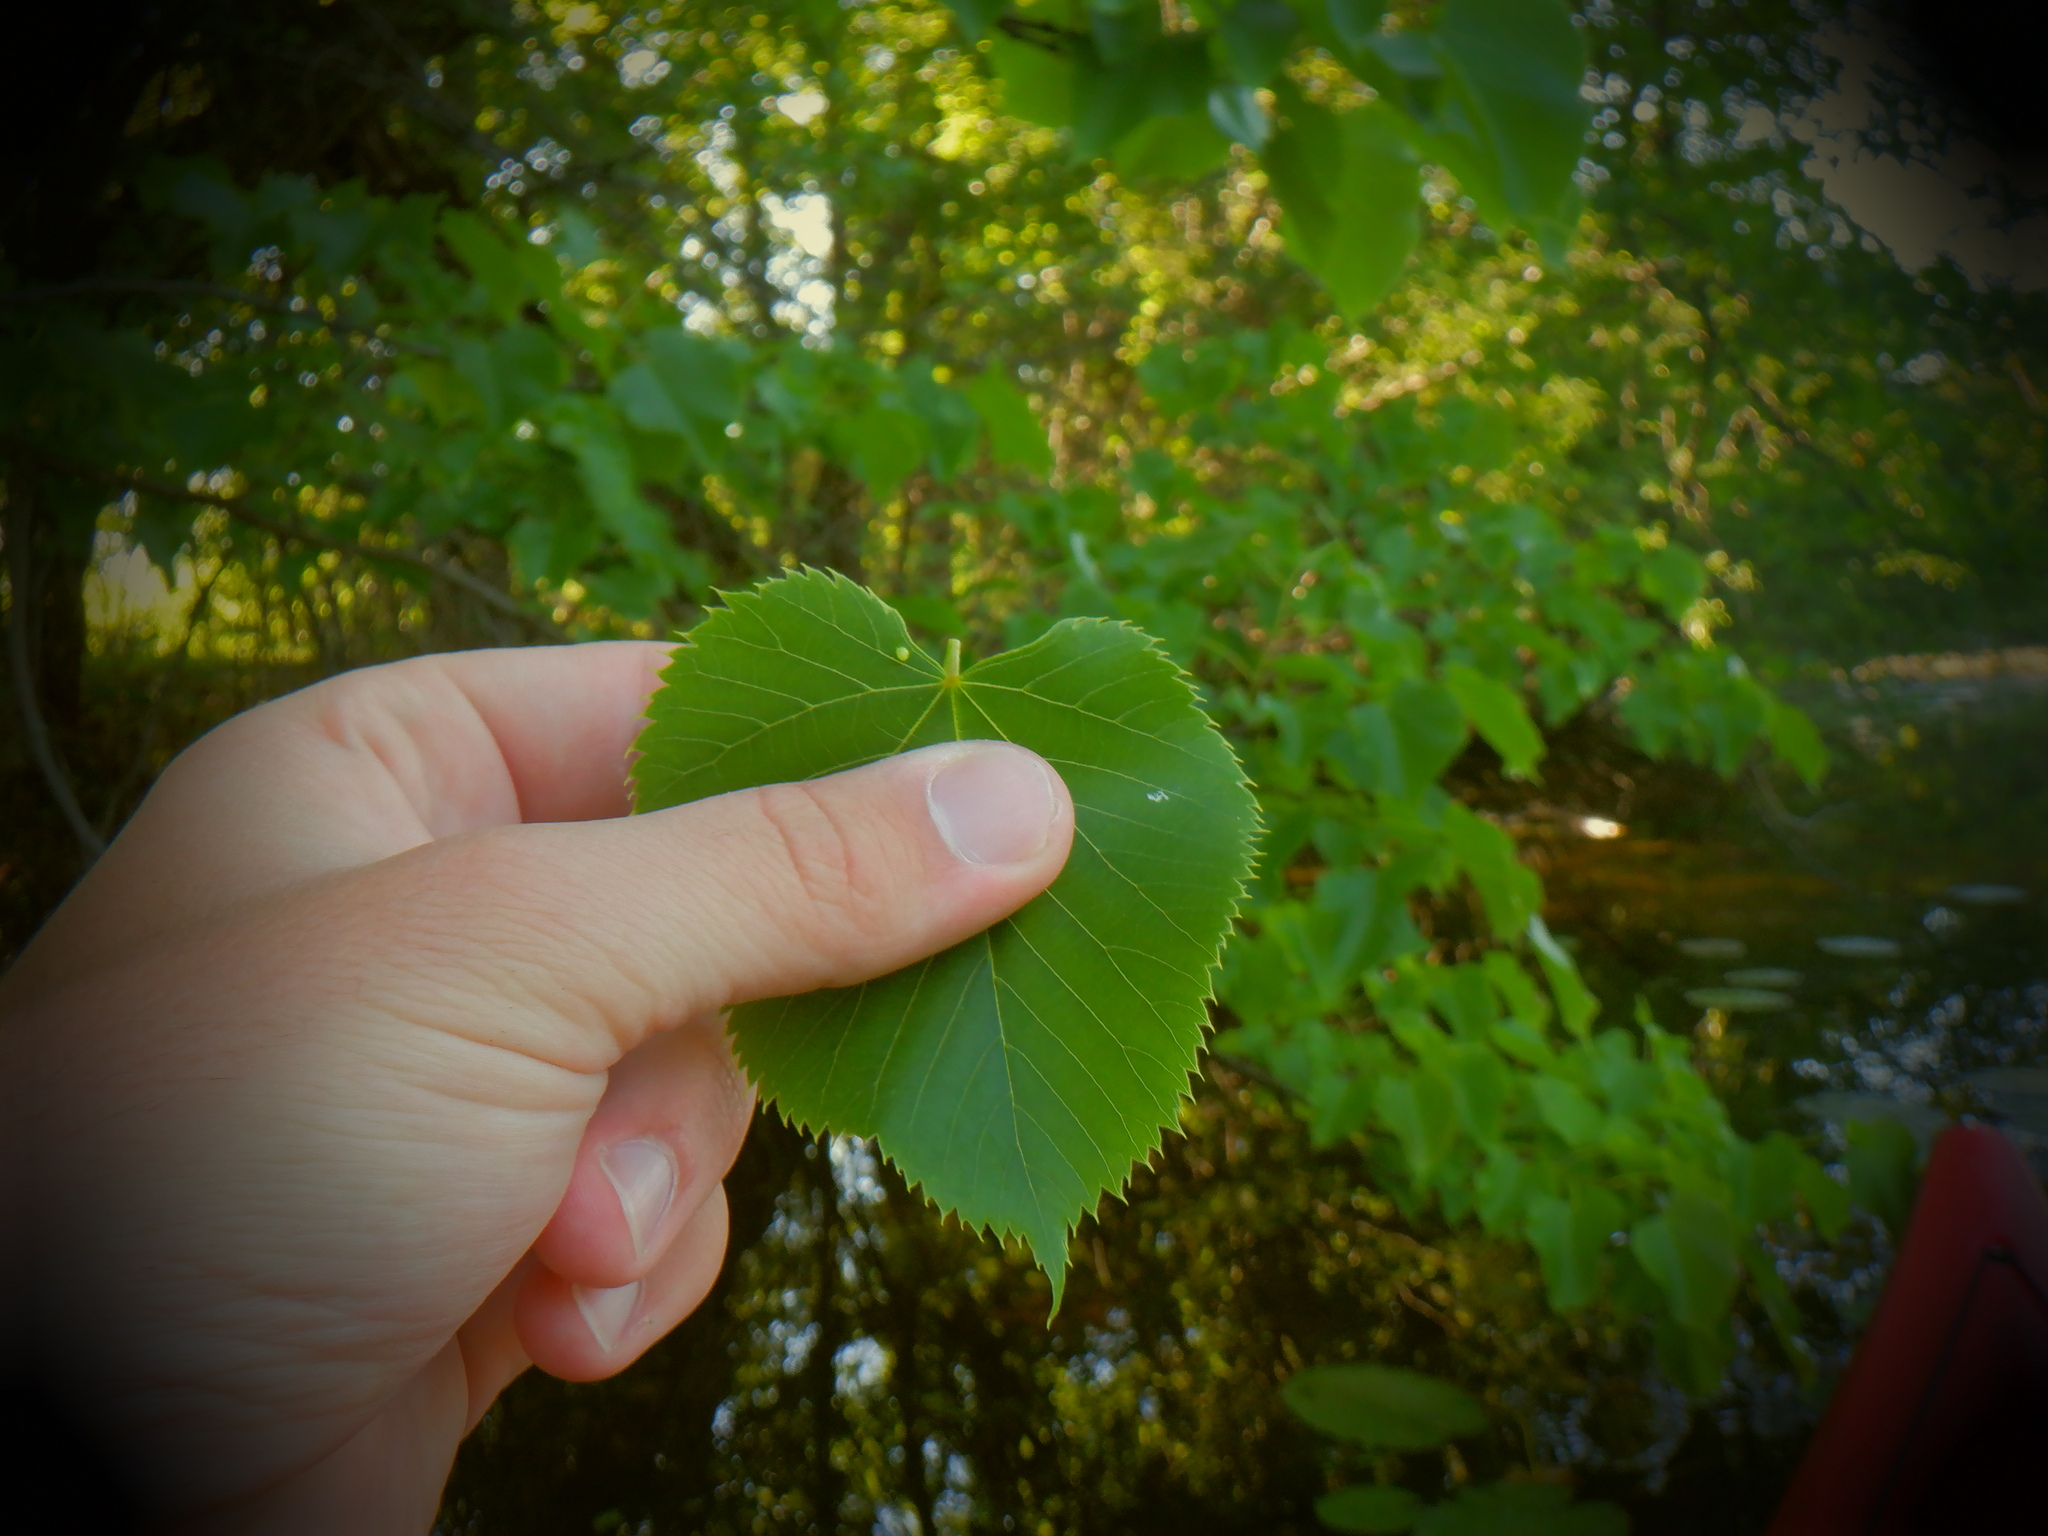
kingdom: Plantae
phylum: Tracheophyta
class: Magnoliopsida
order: Malvales
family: Malvaceae
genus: Tilia
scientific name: Tilia americana
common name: Basswood
